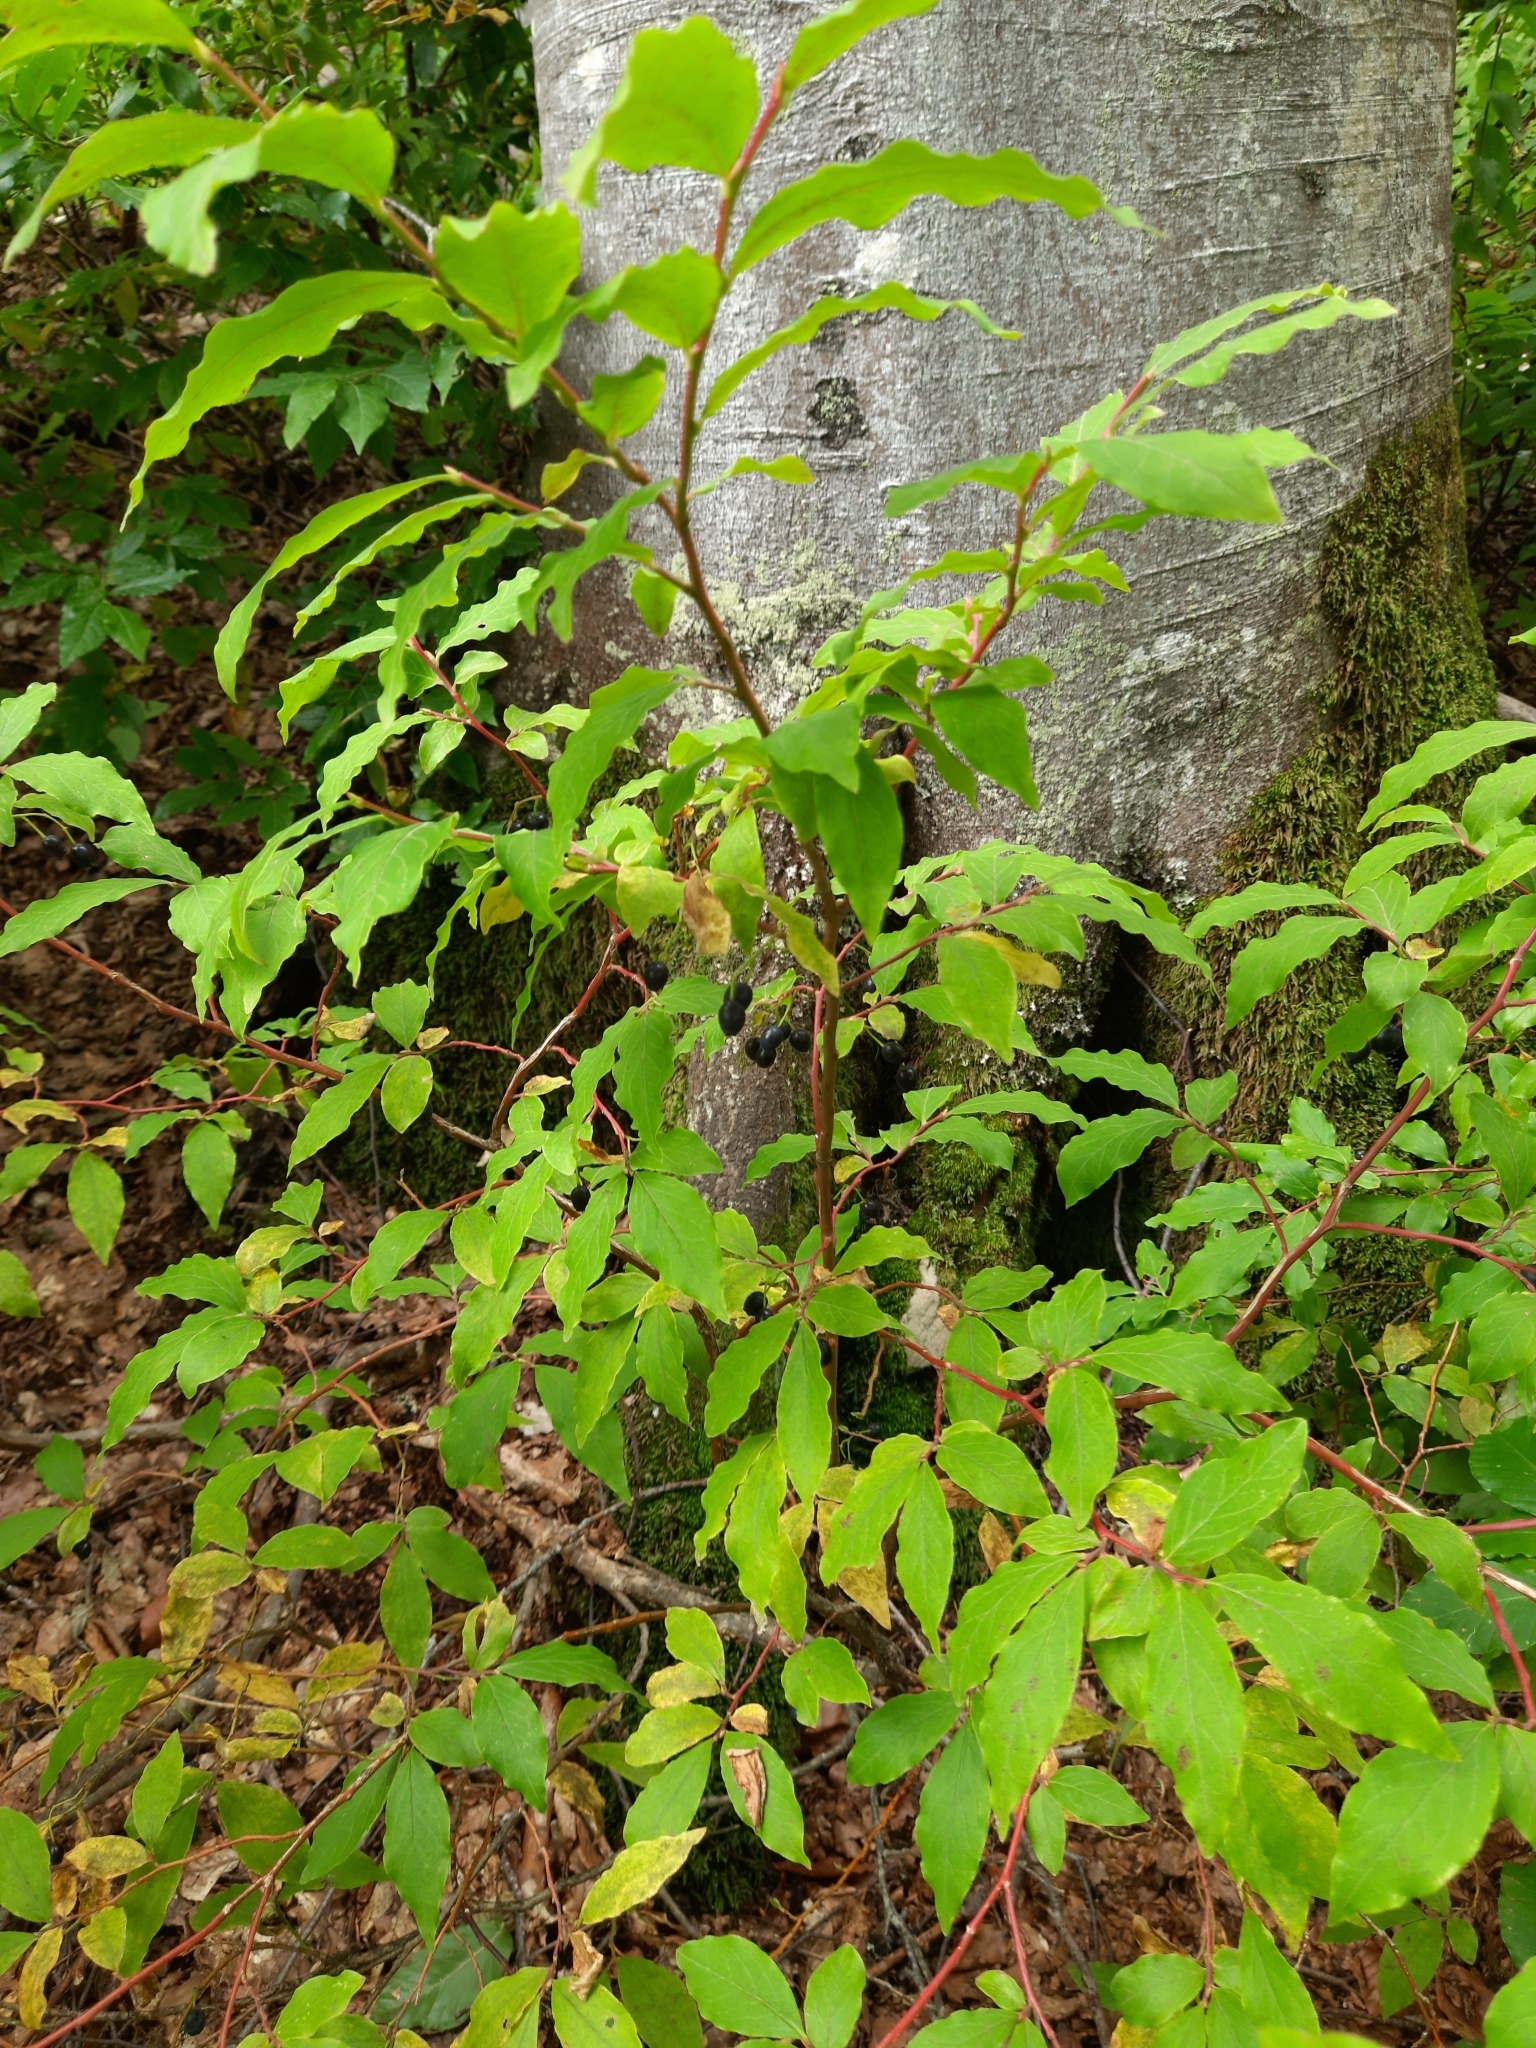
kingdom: Plantae
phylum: Tracheophyta
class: Magnoliopsida
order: Ericales
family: Ericaceae
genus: Vaccinium
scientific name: Vaccinium arctostaphylos
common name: Caucasian whortleberry
